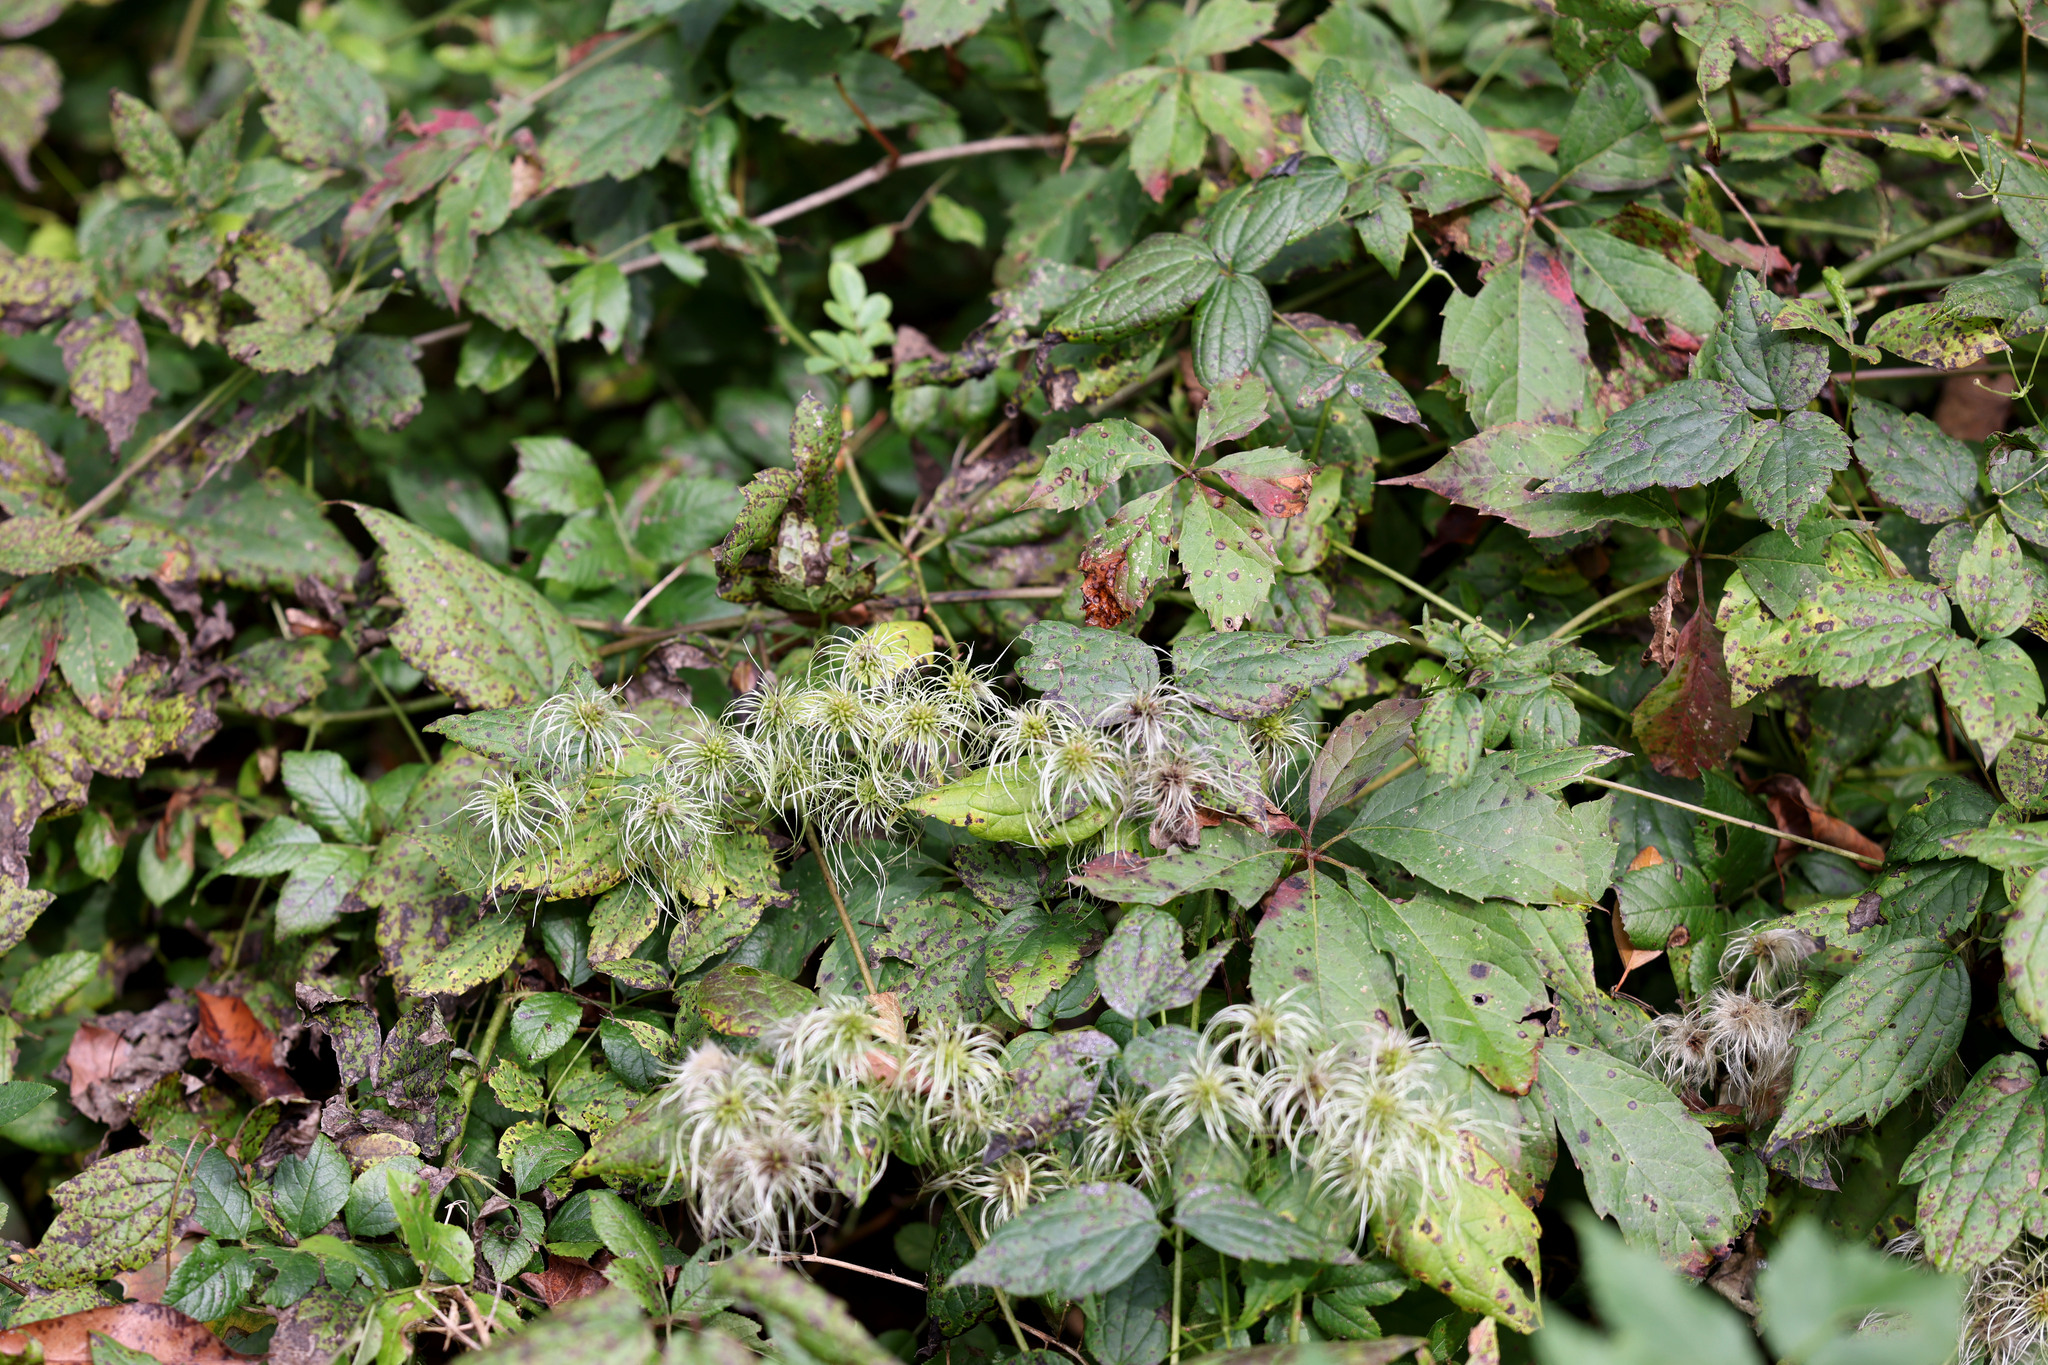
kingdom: Plantae
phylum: Tracheophyta
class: Magnoliopsida
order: Ranunculales
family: Ranunculaceae
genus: Clematis
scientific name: Clematis virginiana
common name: Virgin's-bower
